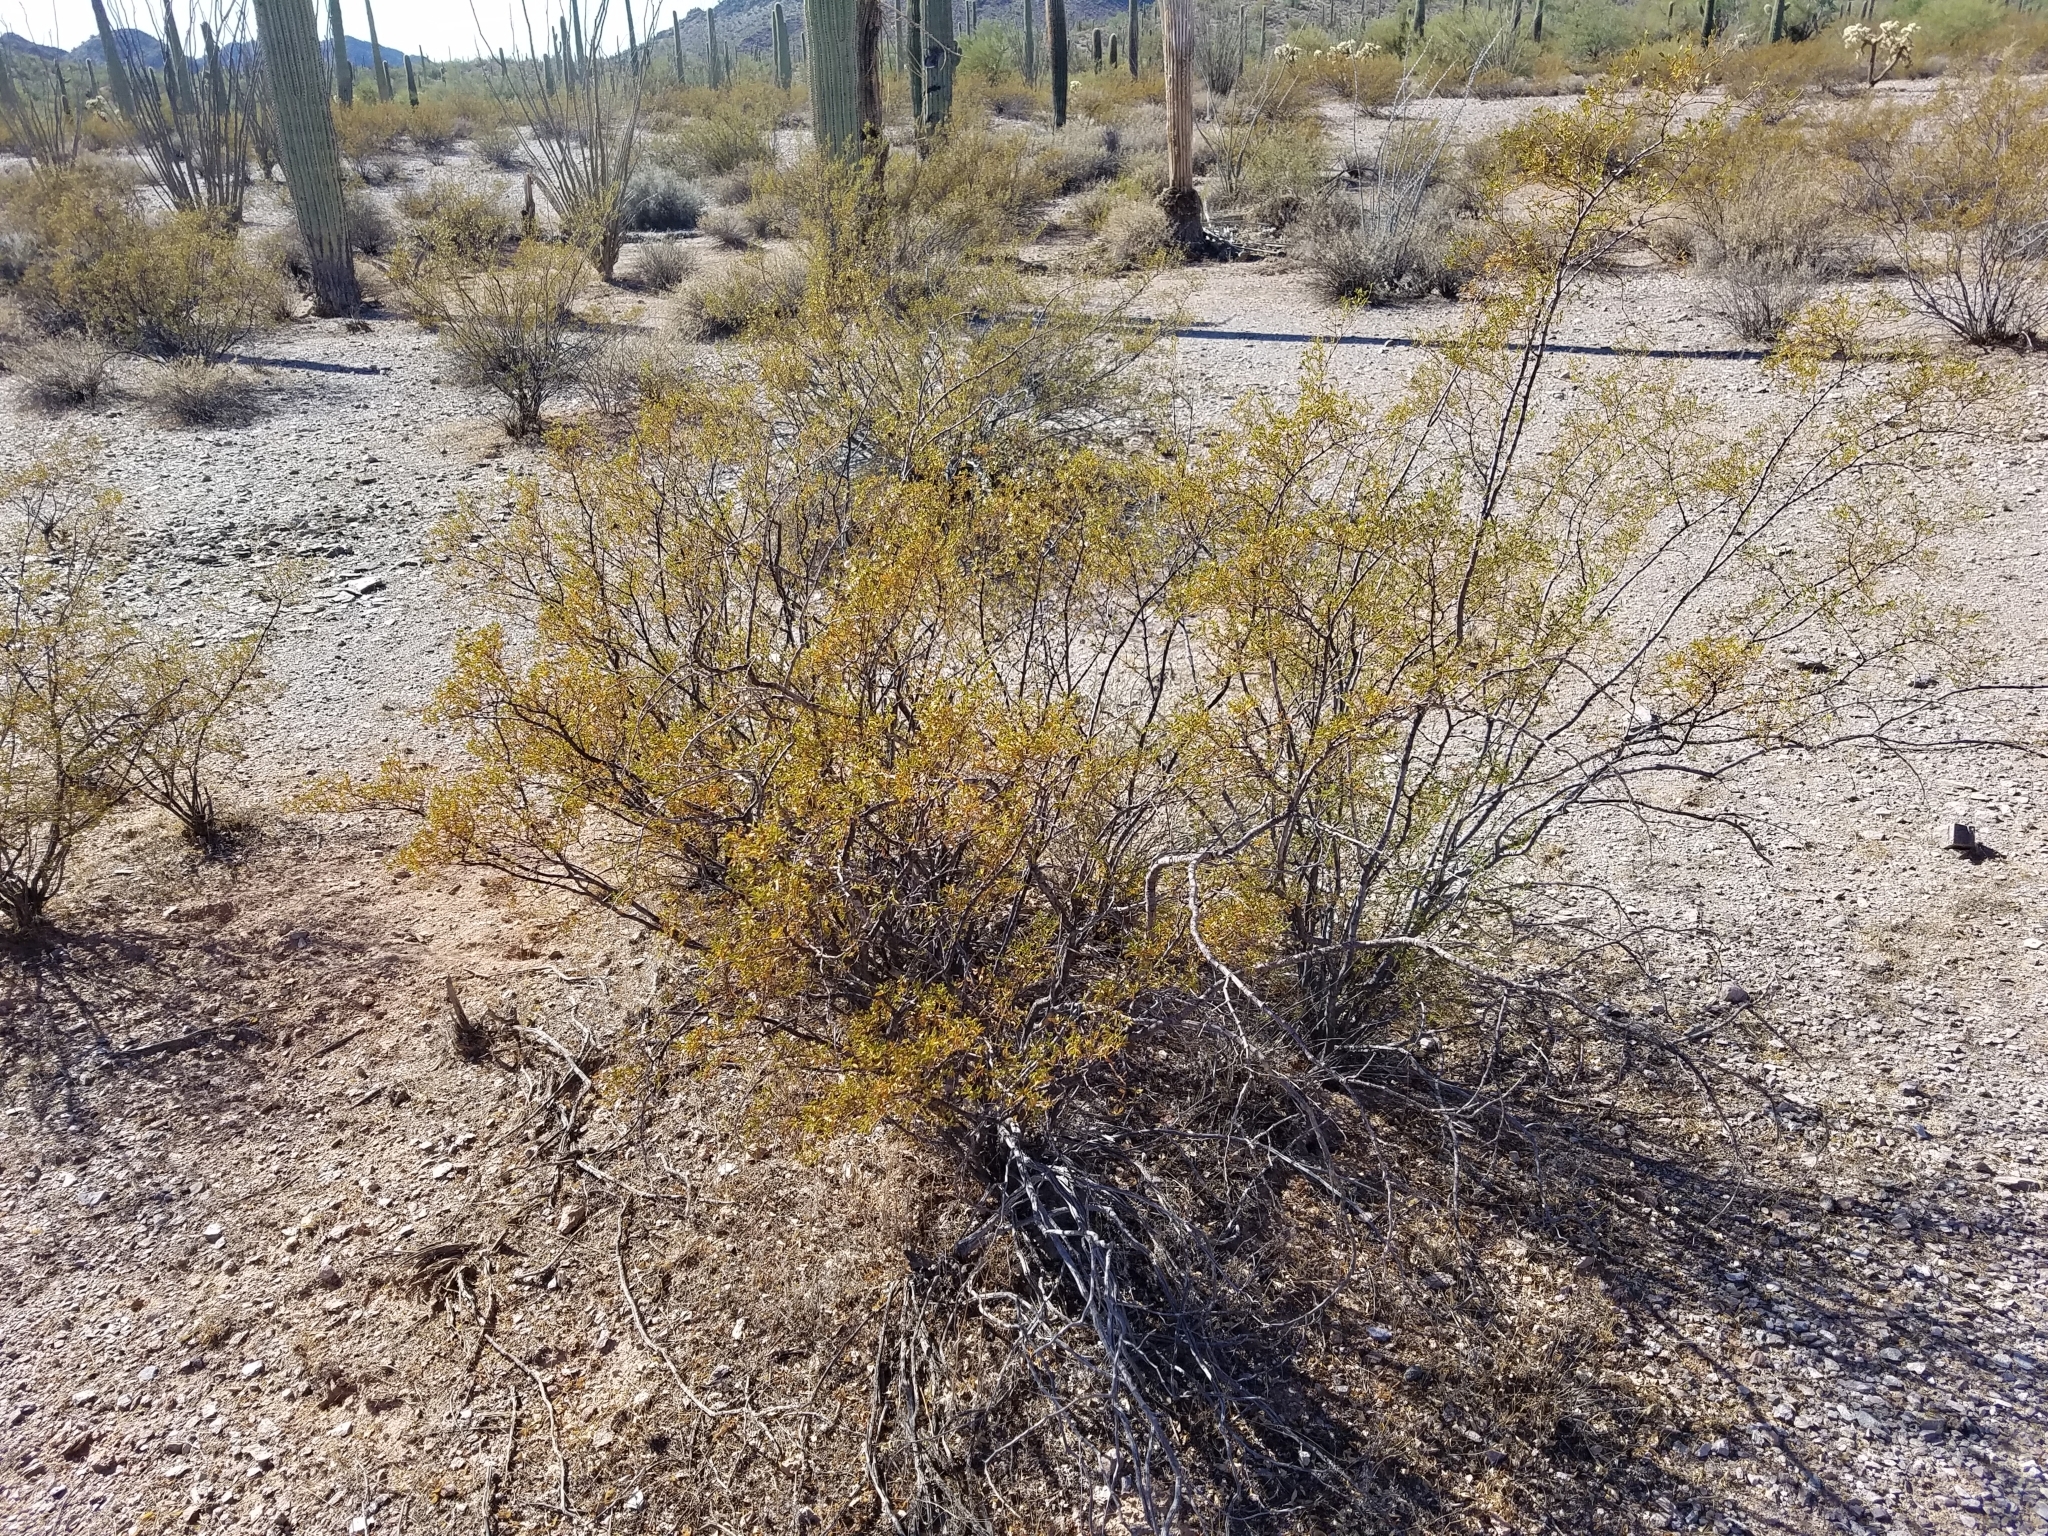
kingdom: Plantae
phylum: Tracheophyta
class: Magnoliopsida
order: Zygophyllales
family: Zygophyllaceae
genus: Larrea
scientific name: Larrea tridentata
